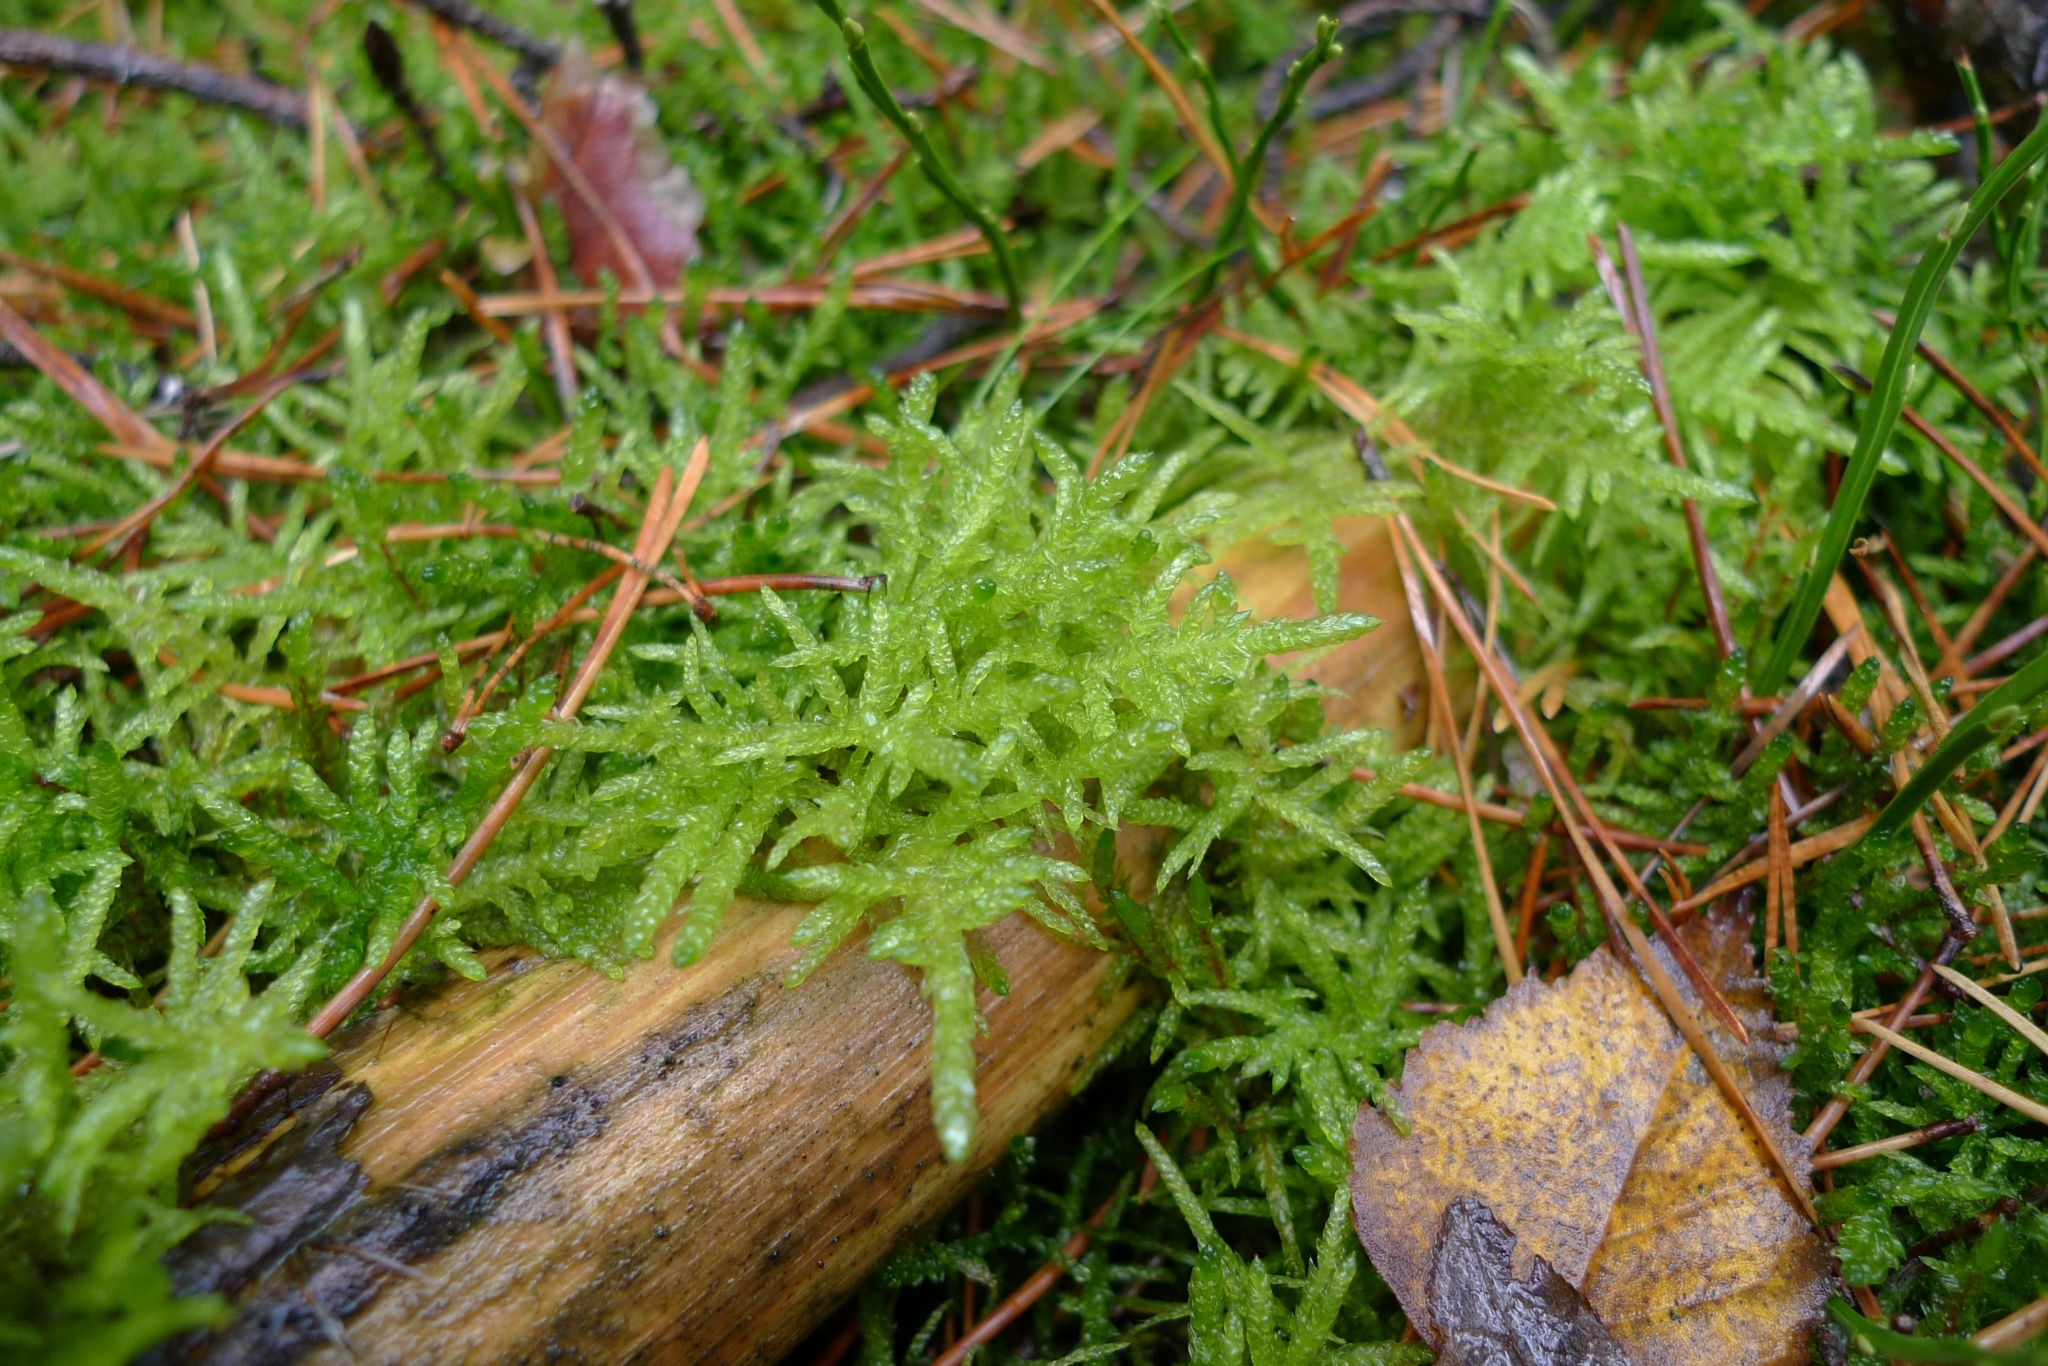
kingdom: Plantae
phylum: Bryophyta
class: Bryopsida
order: Hypnales
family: Brachytheciaceae
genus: Pseudoscleropodium
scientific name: Pseudoscleropodium purum
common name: Neat feather-moss
